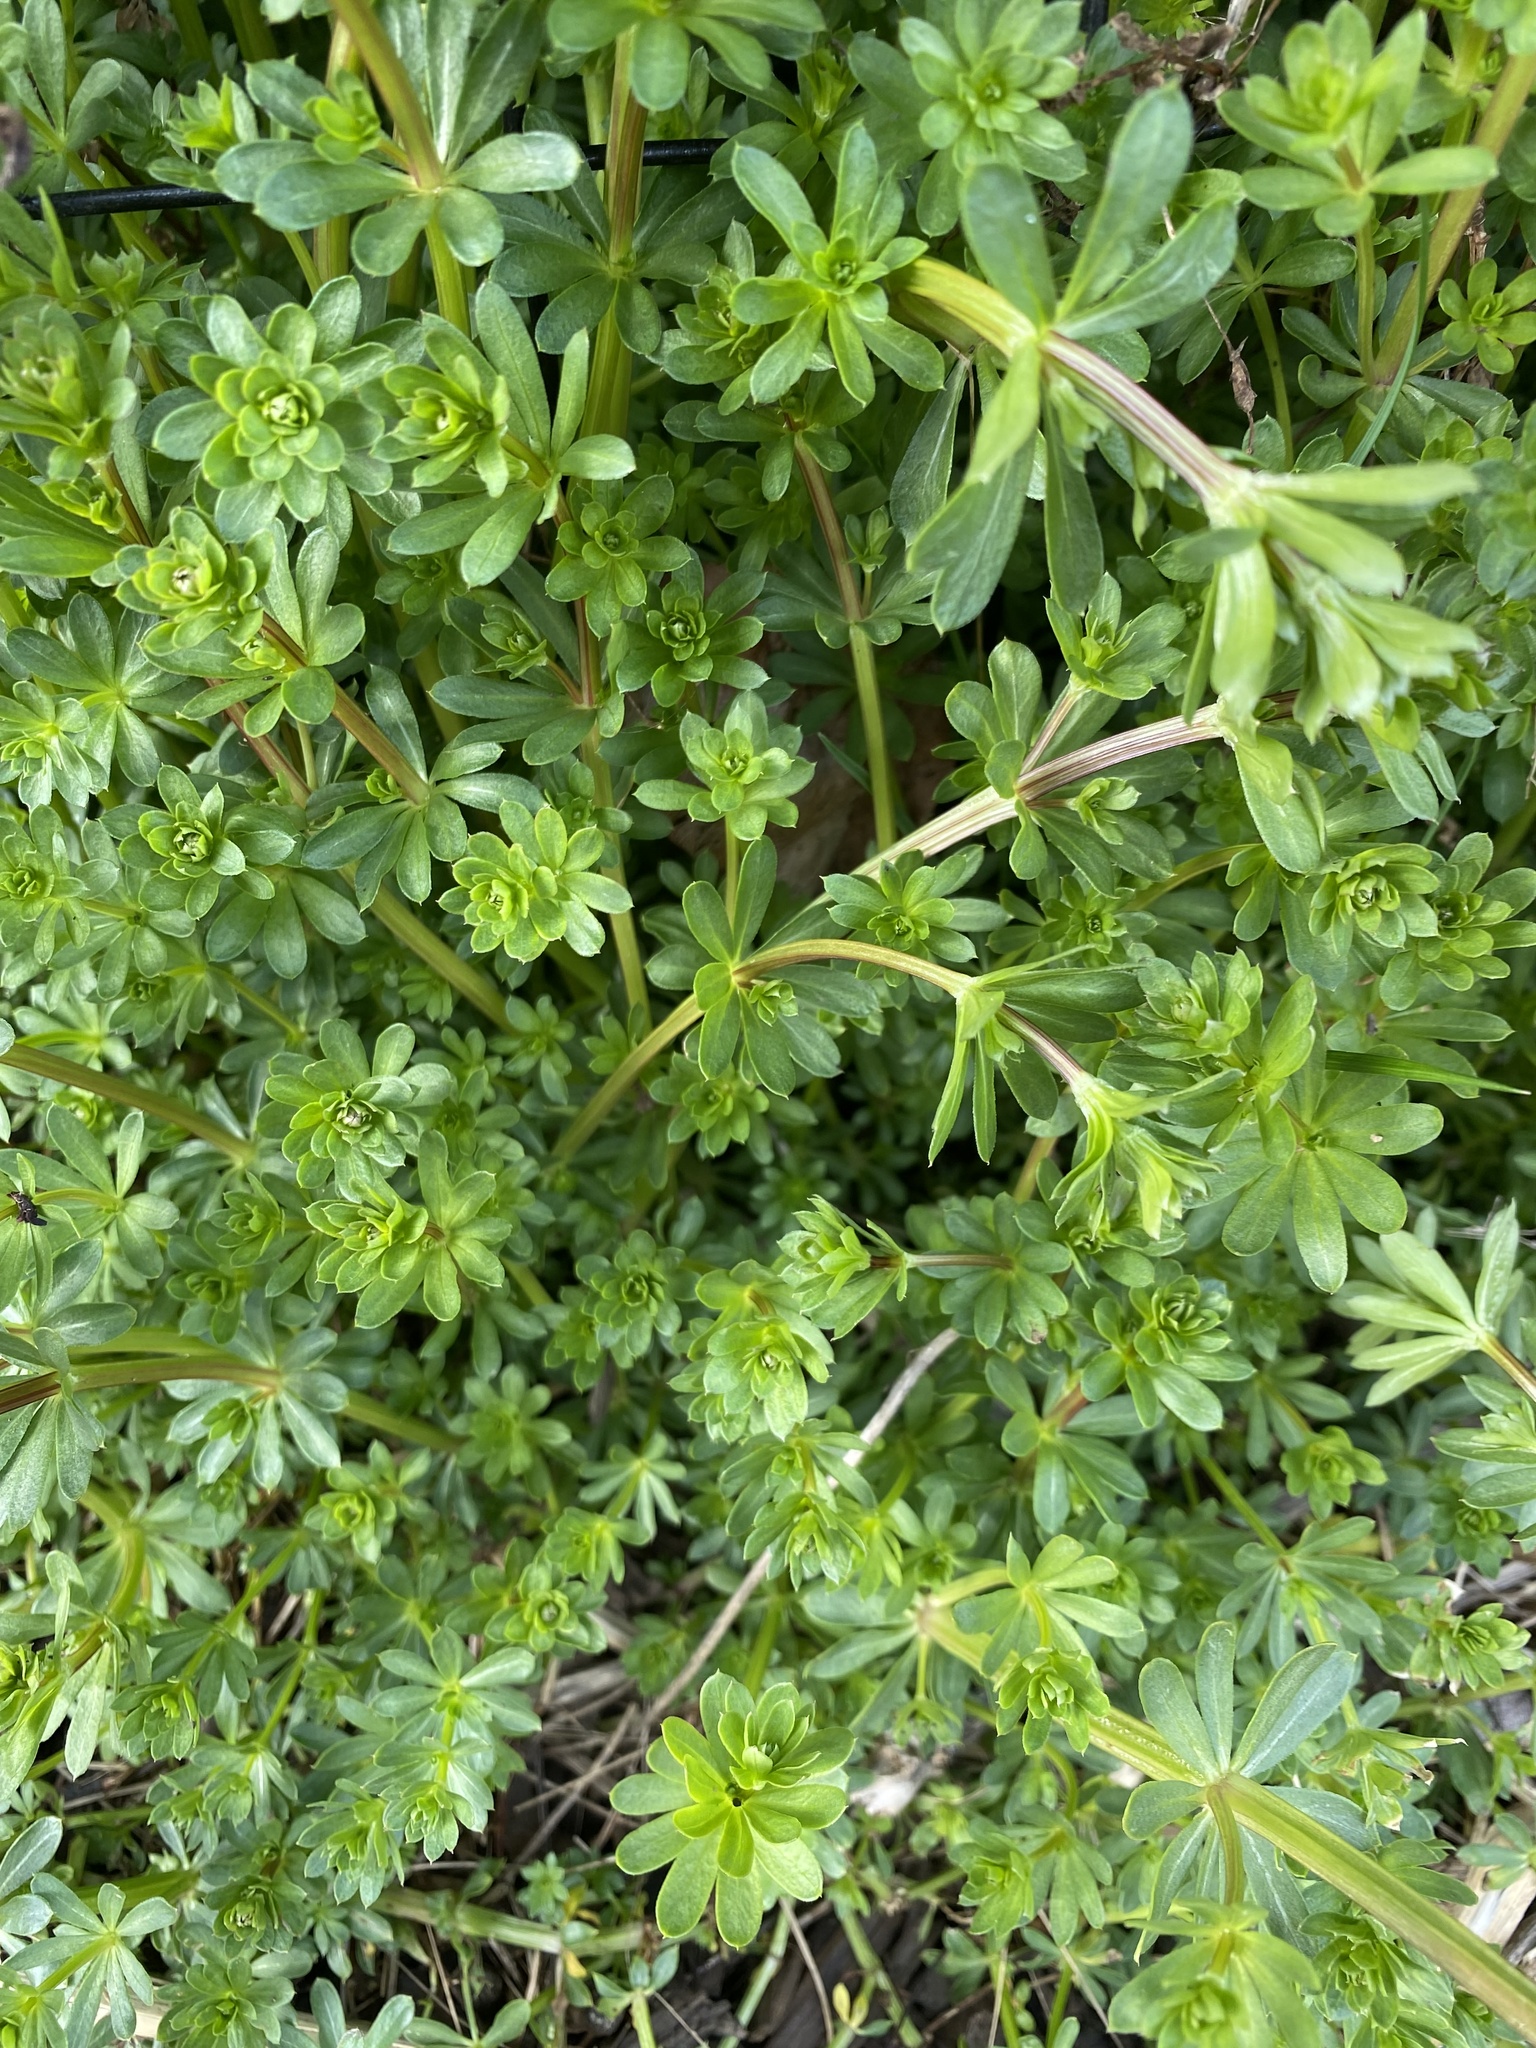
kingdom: Plantae
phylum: Tracheophyta
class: Magnoliopsida
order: Gentianales
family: Rubiaceae
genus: Galium
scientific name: Galium mollugo
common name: Hedge bedstraw
